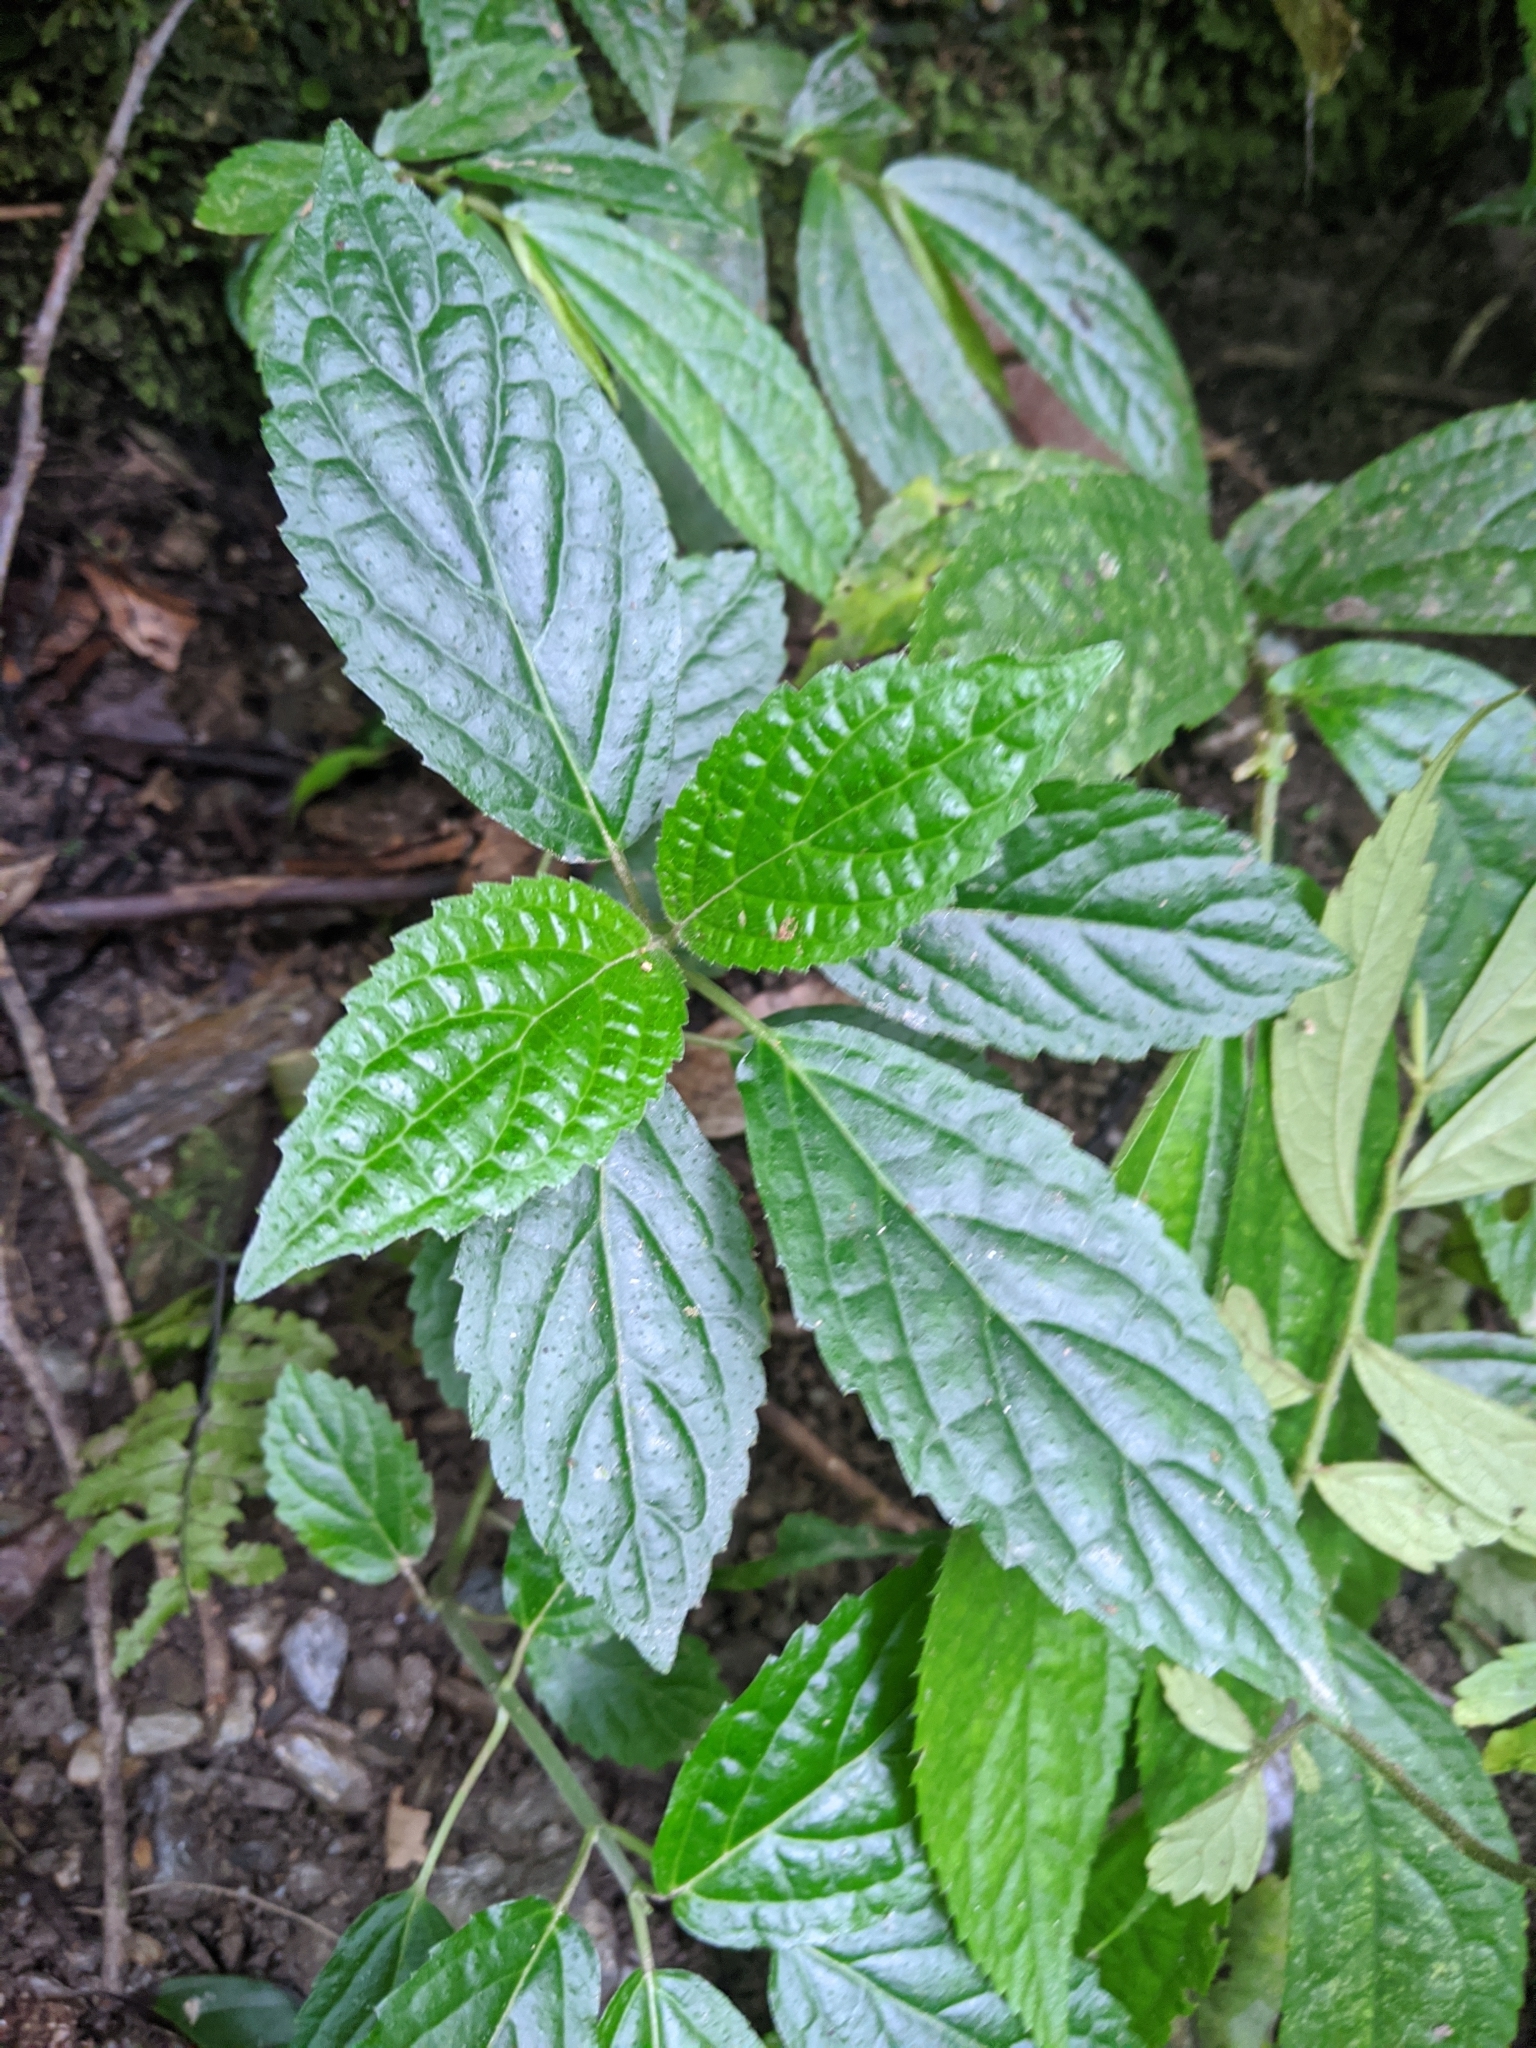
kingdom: Plantae
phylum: Tracheophyta
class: Magnoliopsida
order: Lamiales
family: Lamiaceae
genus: Paraphlomis
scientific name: Paraphlomis javanica
